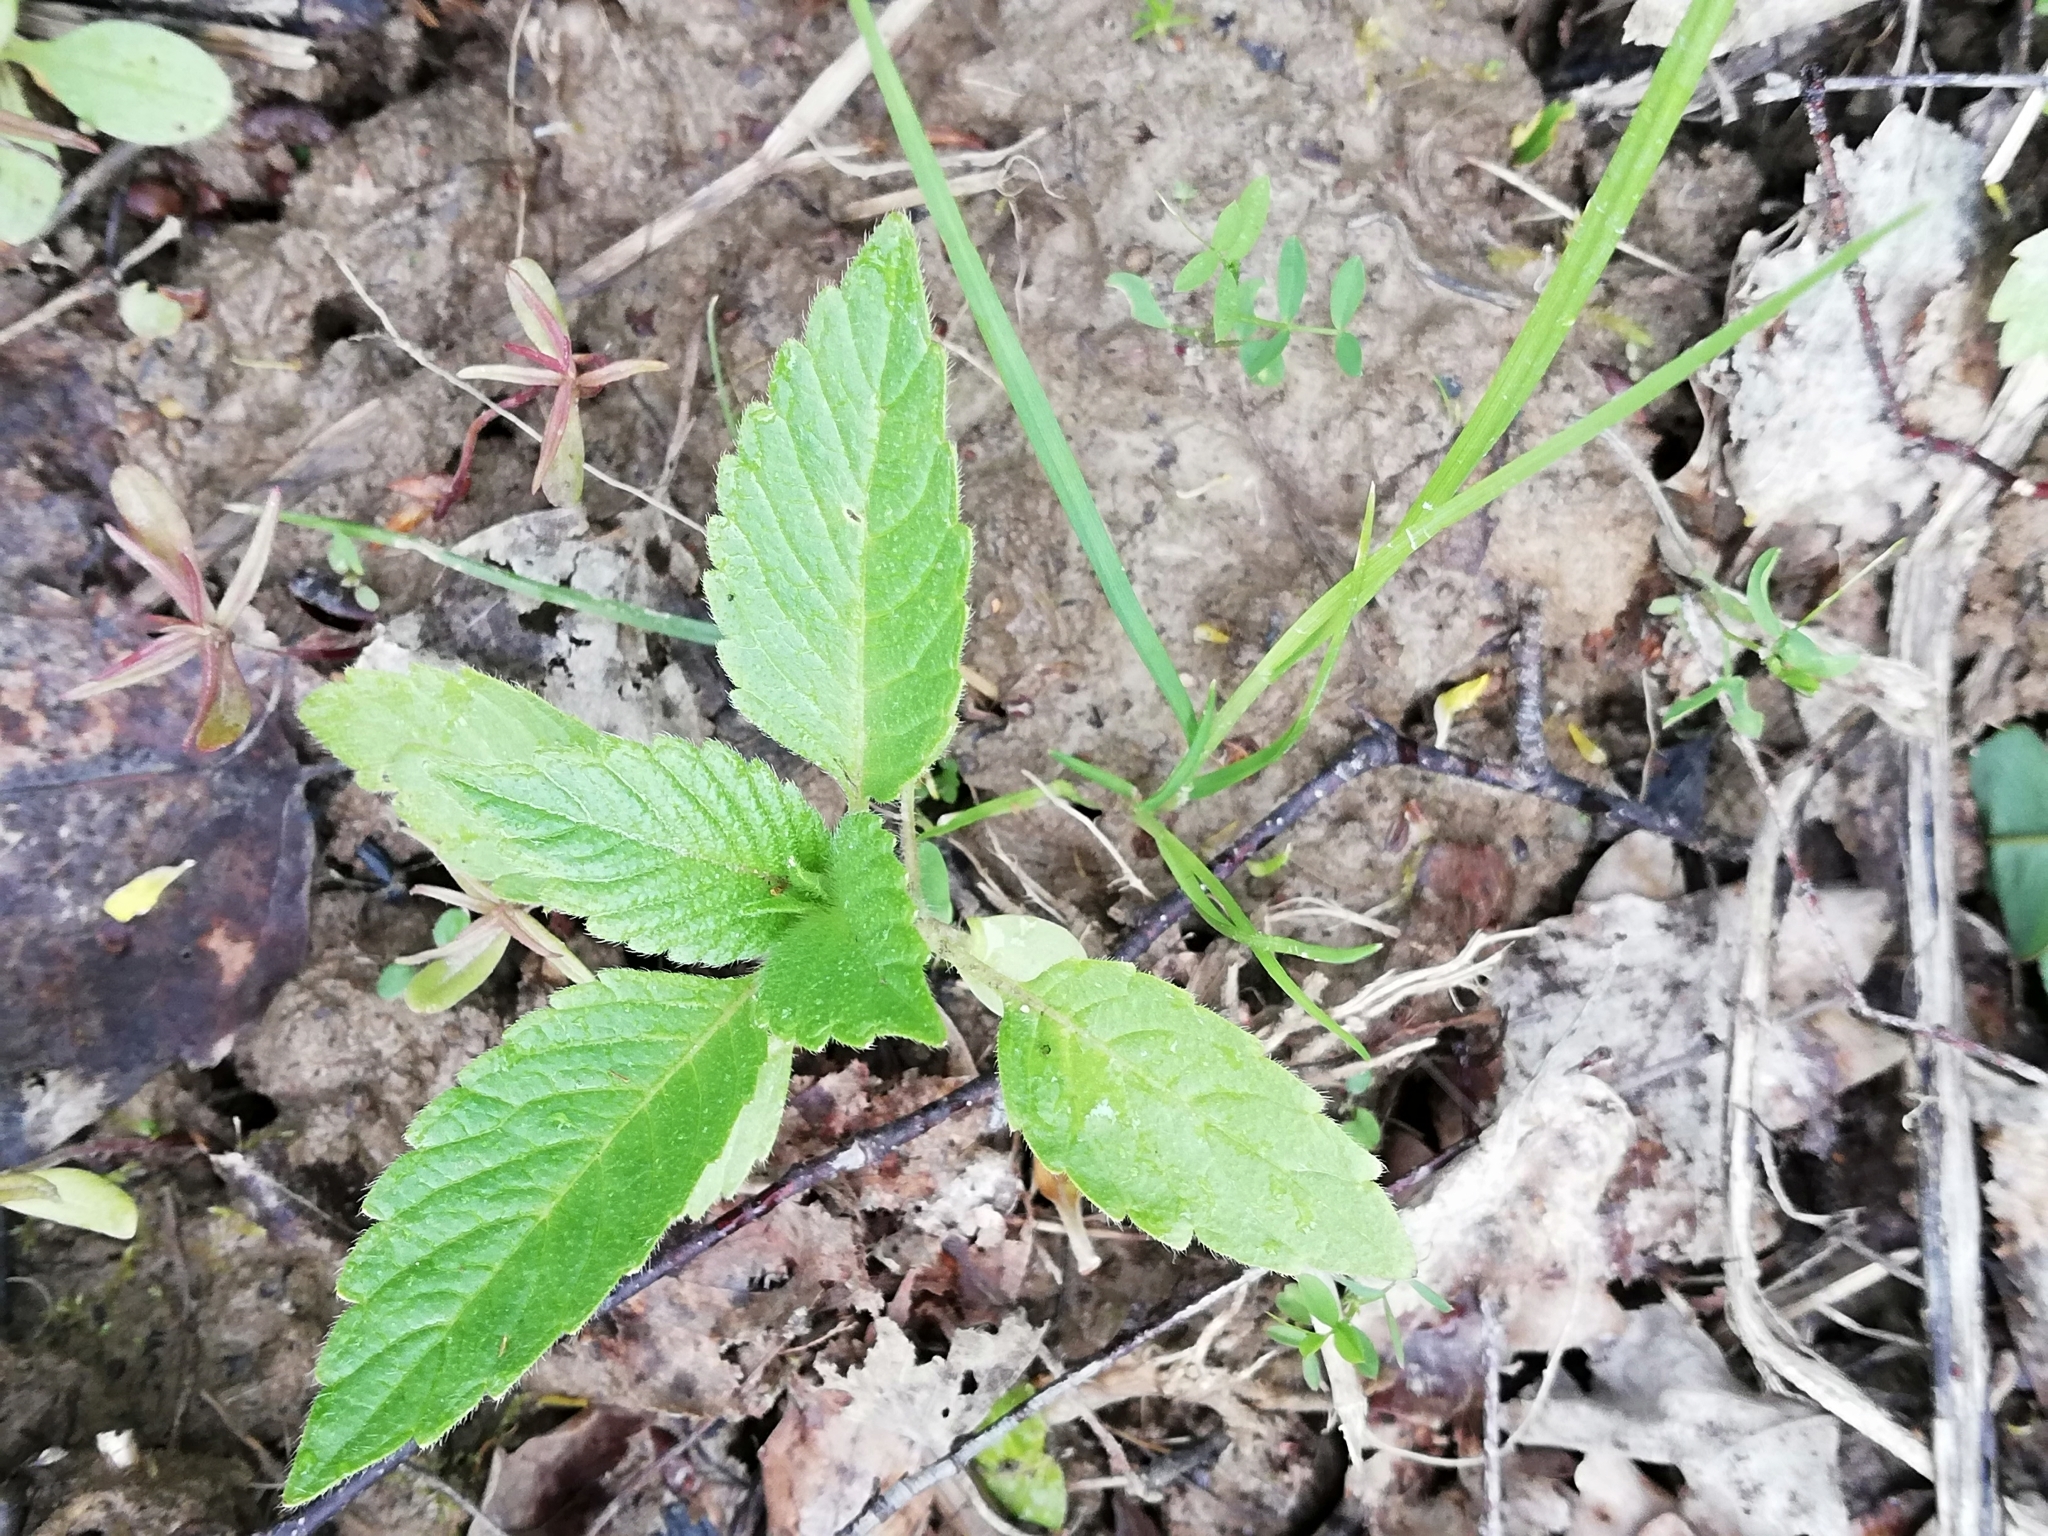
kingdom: Plantae
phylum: Tracheophyta
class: Magnoliopsida
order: Lamiales
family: Lamiaceae
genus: Galeopsis
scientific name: Galeopsis
